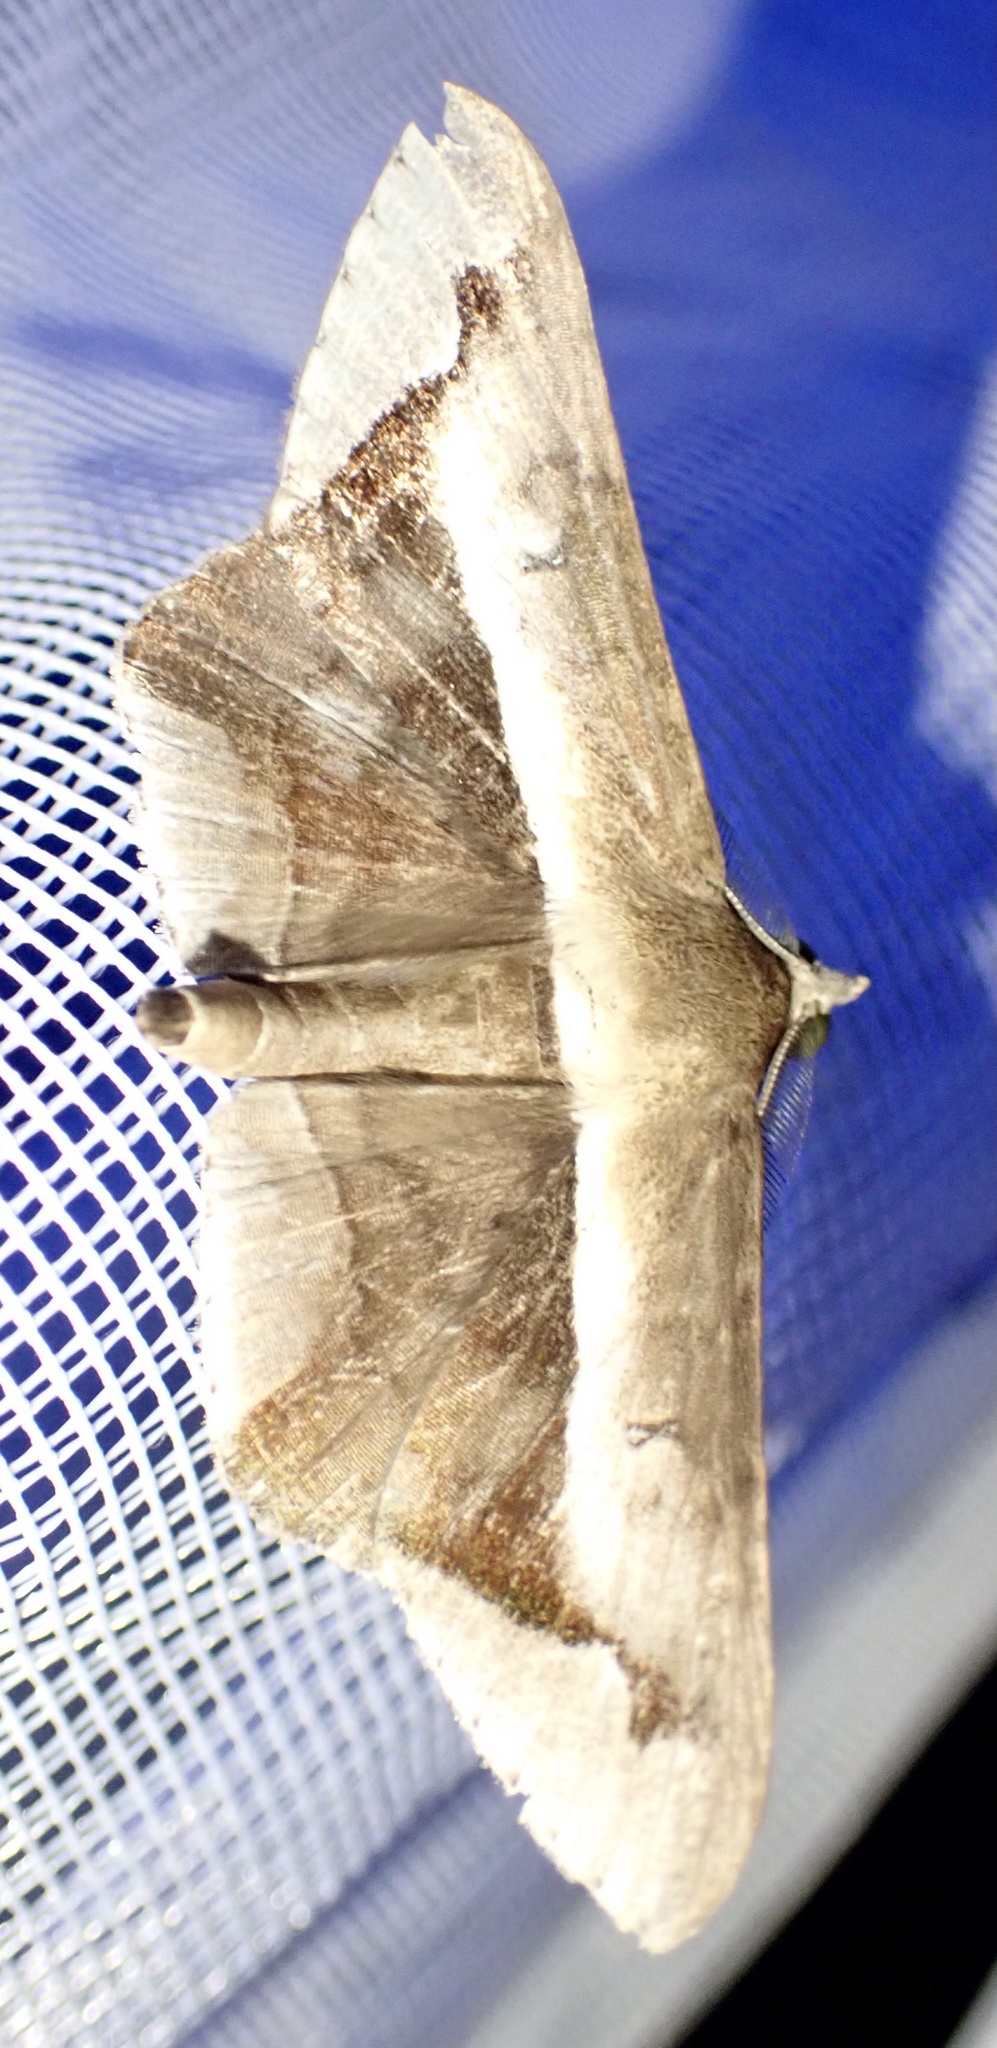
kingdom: Animalia
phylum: Arthropoda
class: Insecta
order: Lepidoptera
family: Erebidae
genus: Gorua
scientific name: Gorua partita
